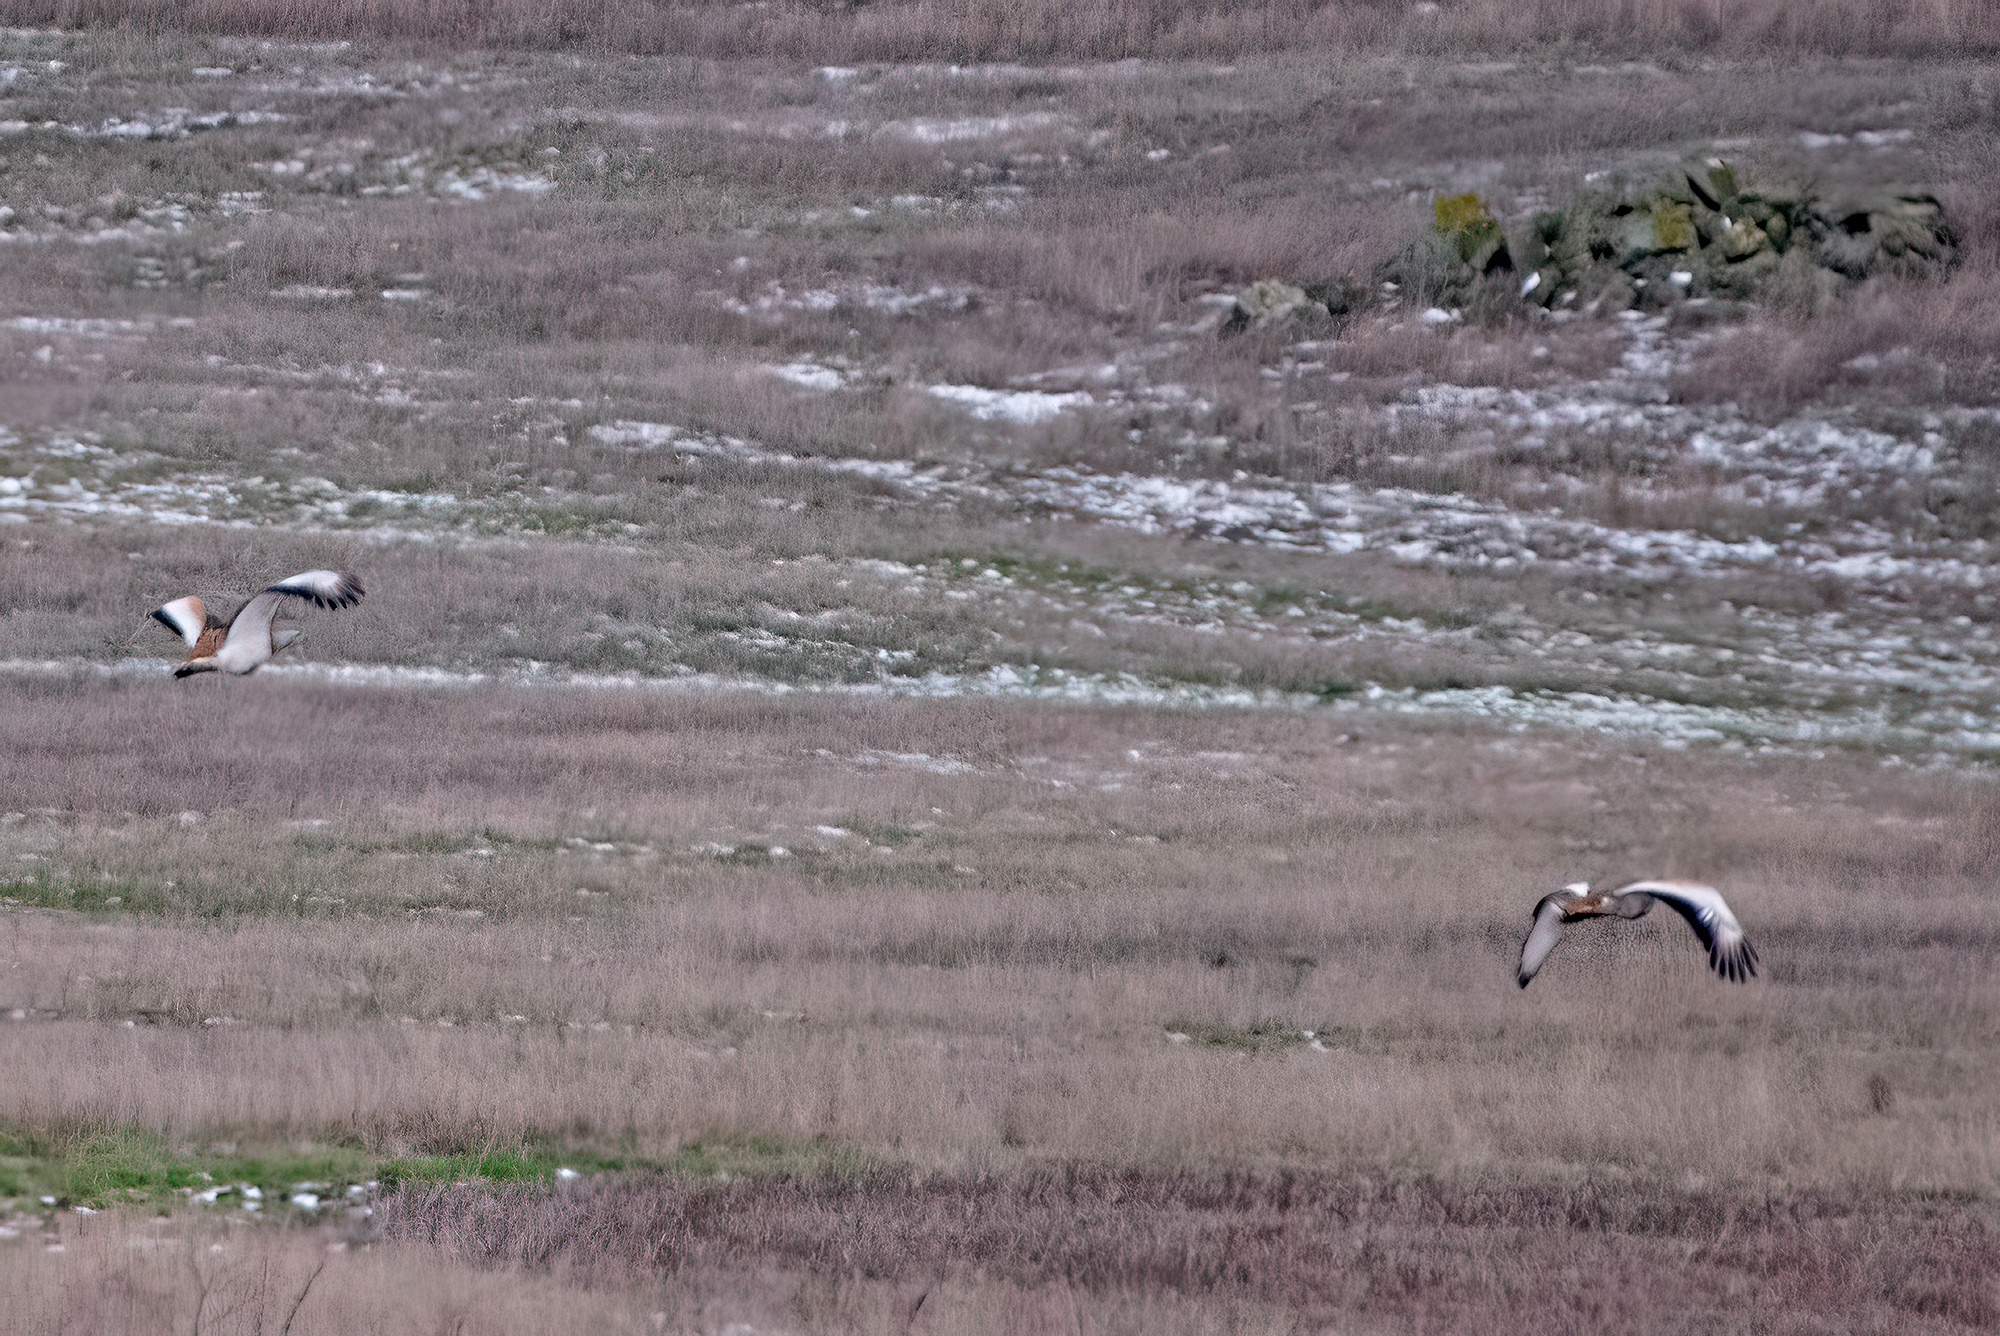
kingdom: Animalia
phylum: Chordata
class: Aves
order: Otidiformes
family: Otididae
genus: Otis
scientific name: Otis tarda
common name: Great bustard
